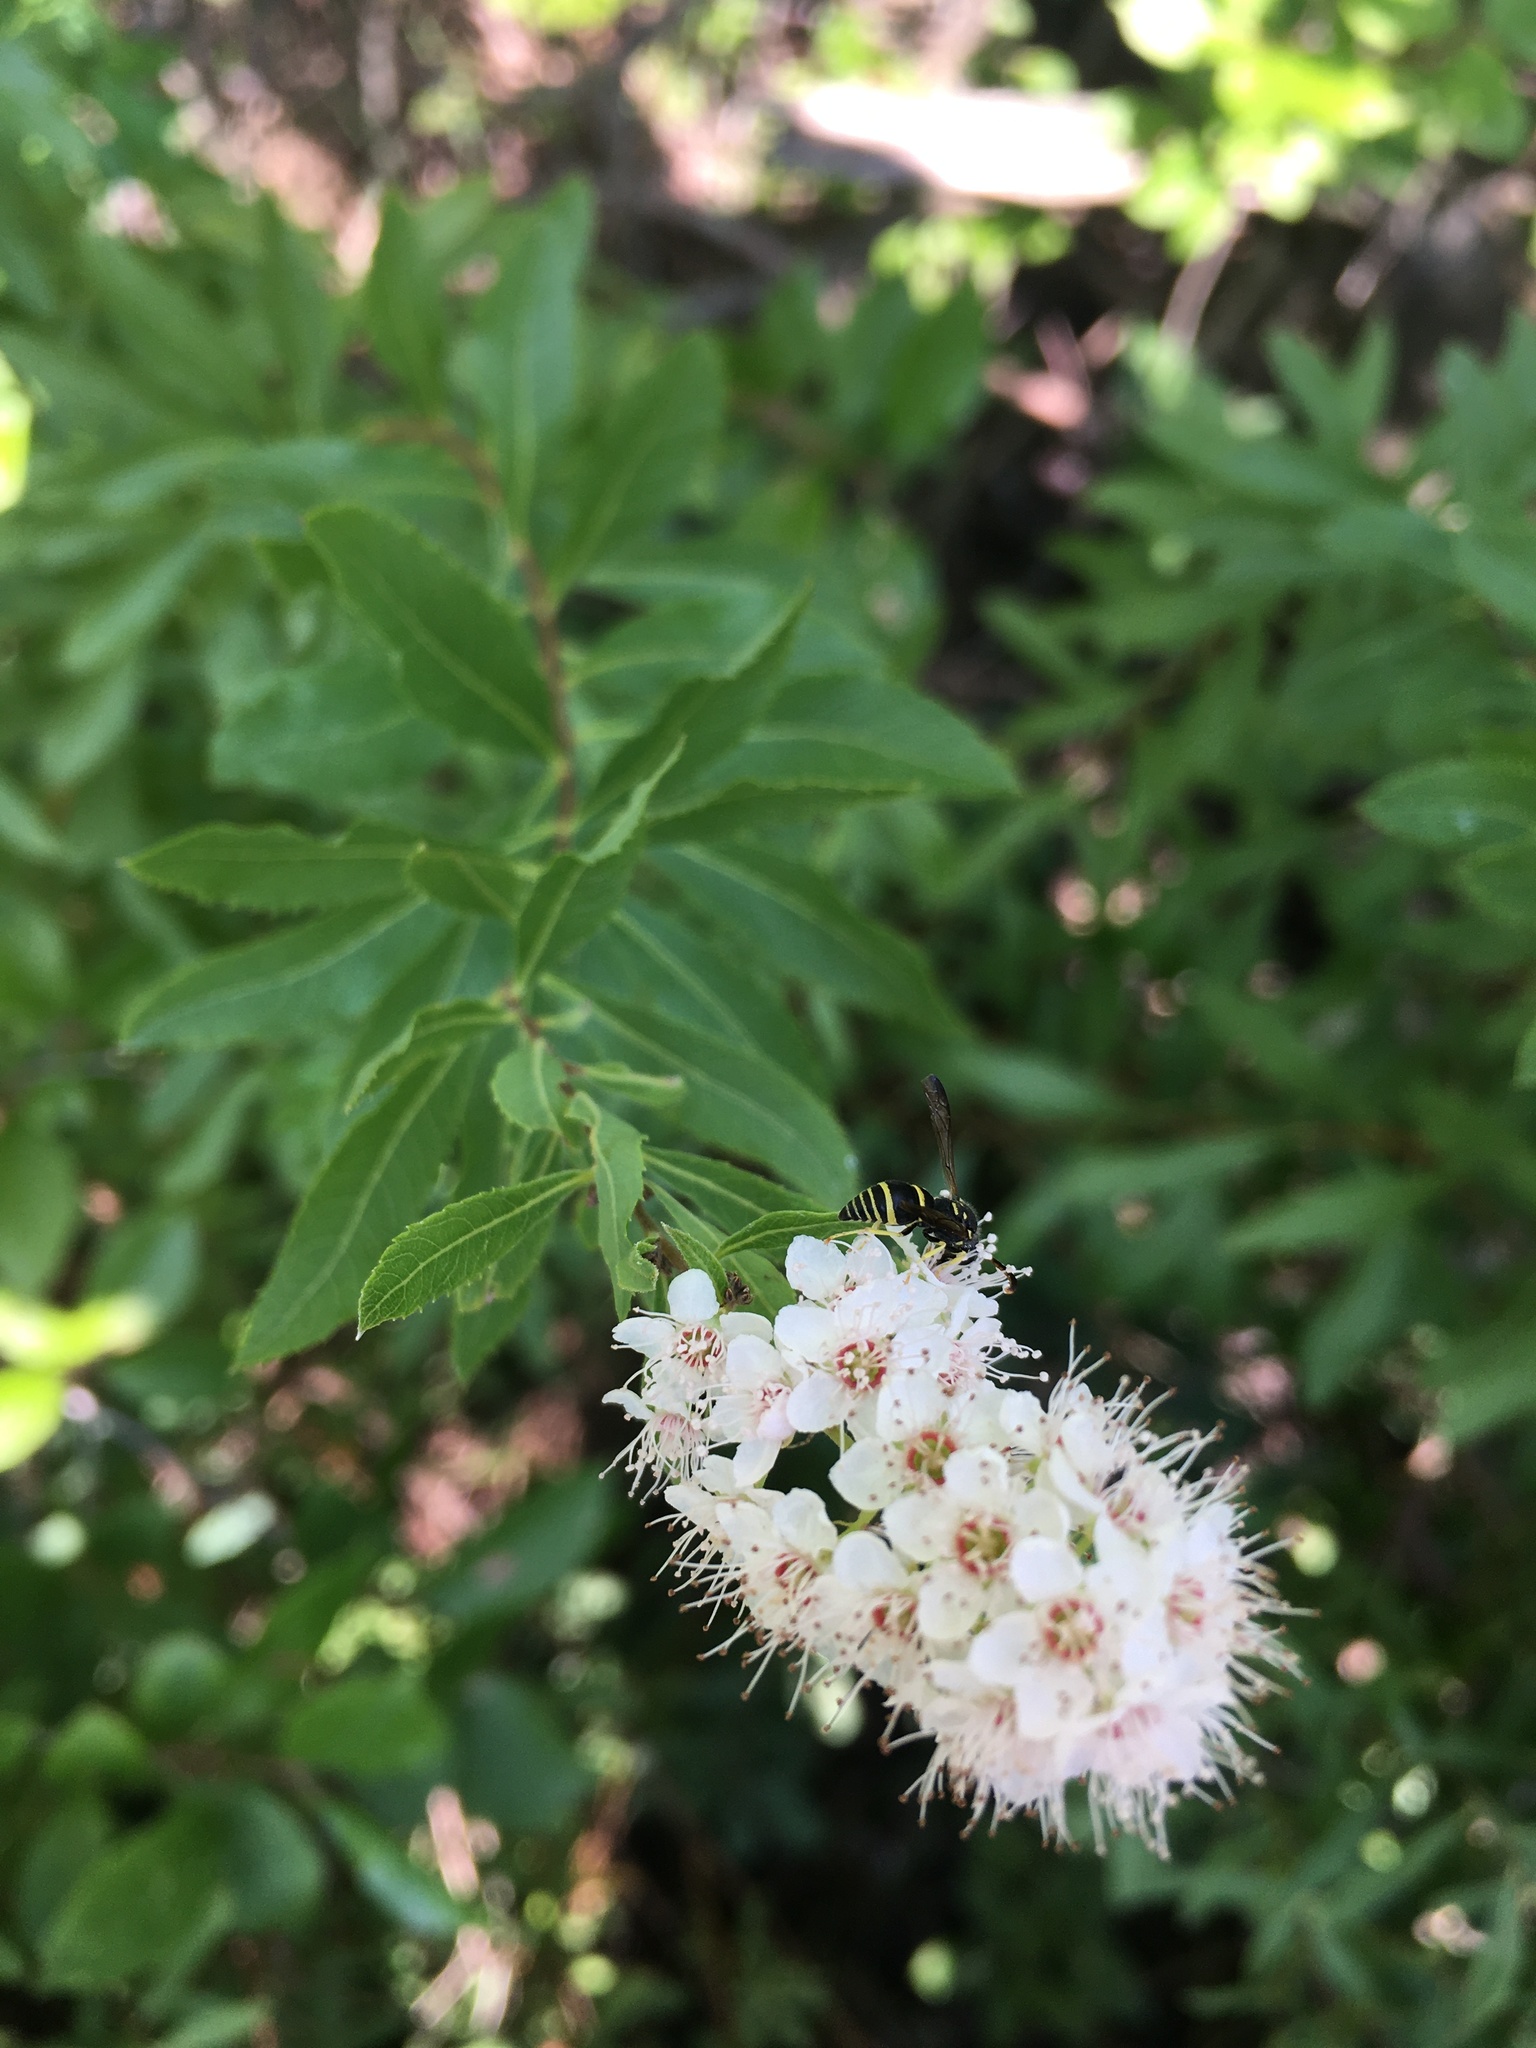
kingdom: Plantae
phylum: Tracheophyta
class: Magnoliopsida
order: Rosales
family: Rosaceae
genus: Spiraea
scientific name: Spiraea alba
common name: Pale bridewort
